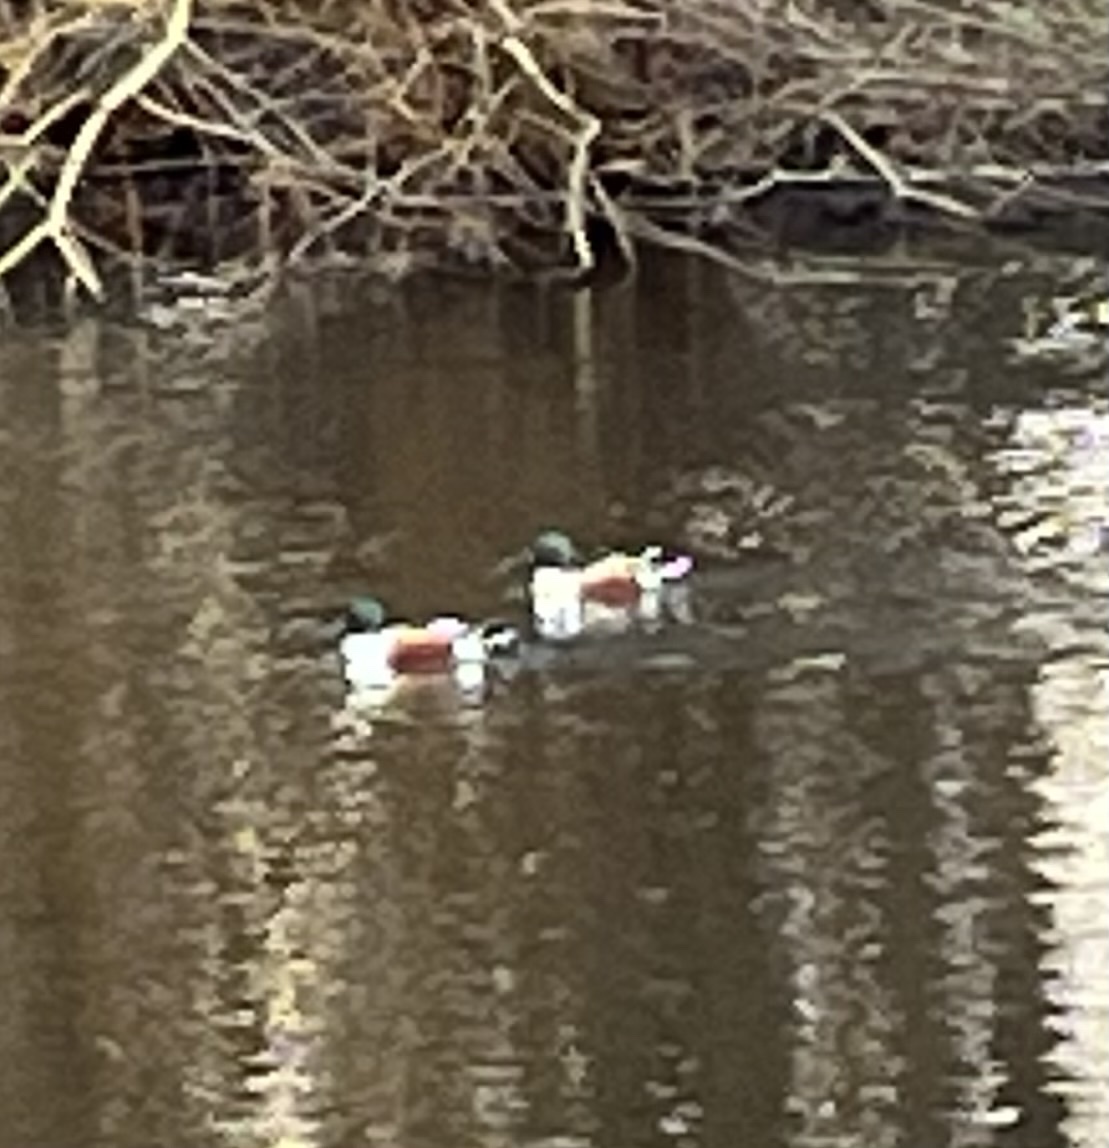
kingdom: Animalia
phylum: Chordata
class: Aves
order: Anseriformes
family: Anatidae
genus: Spatula
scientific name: Spatula clypeata
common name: Northern shoveler
